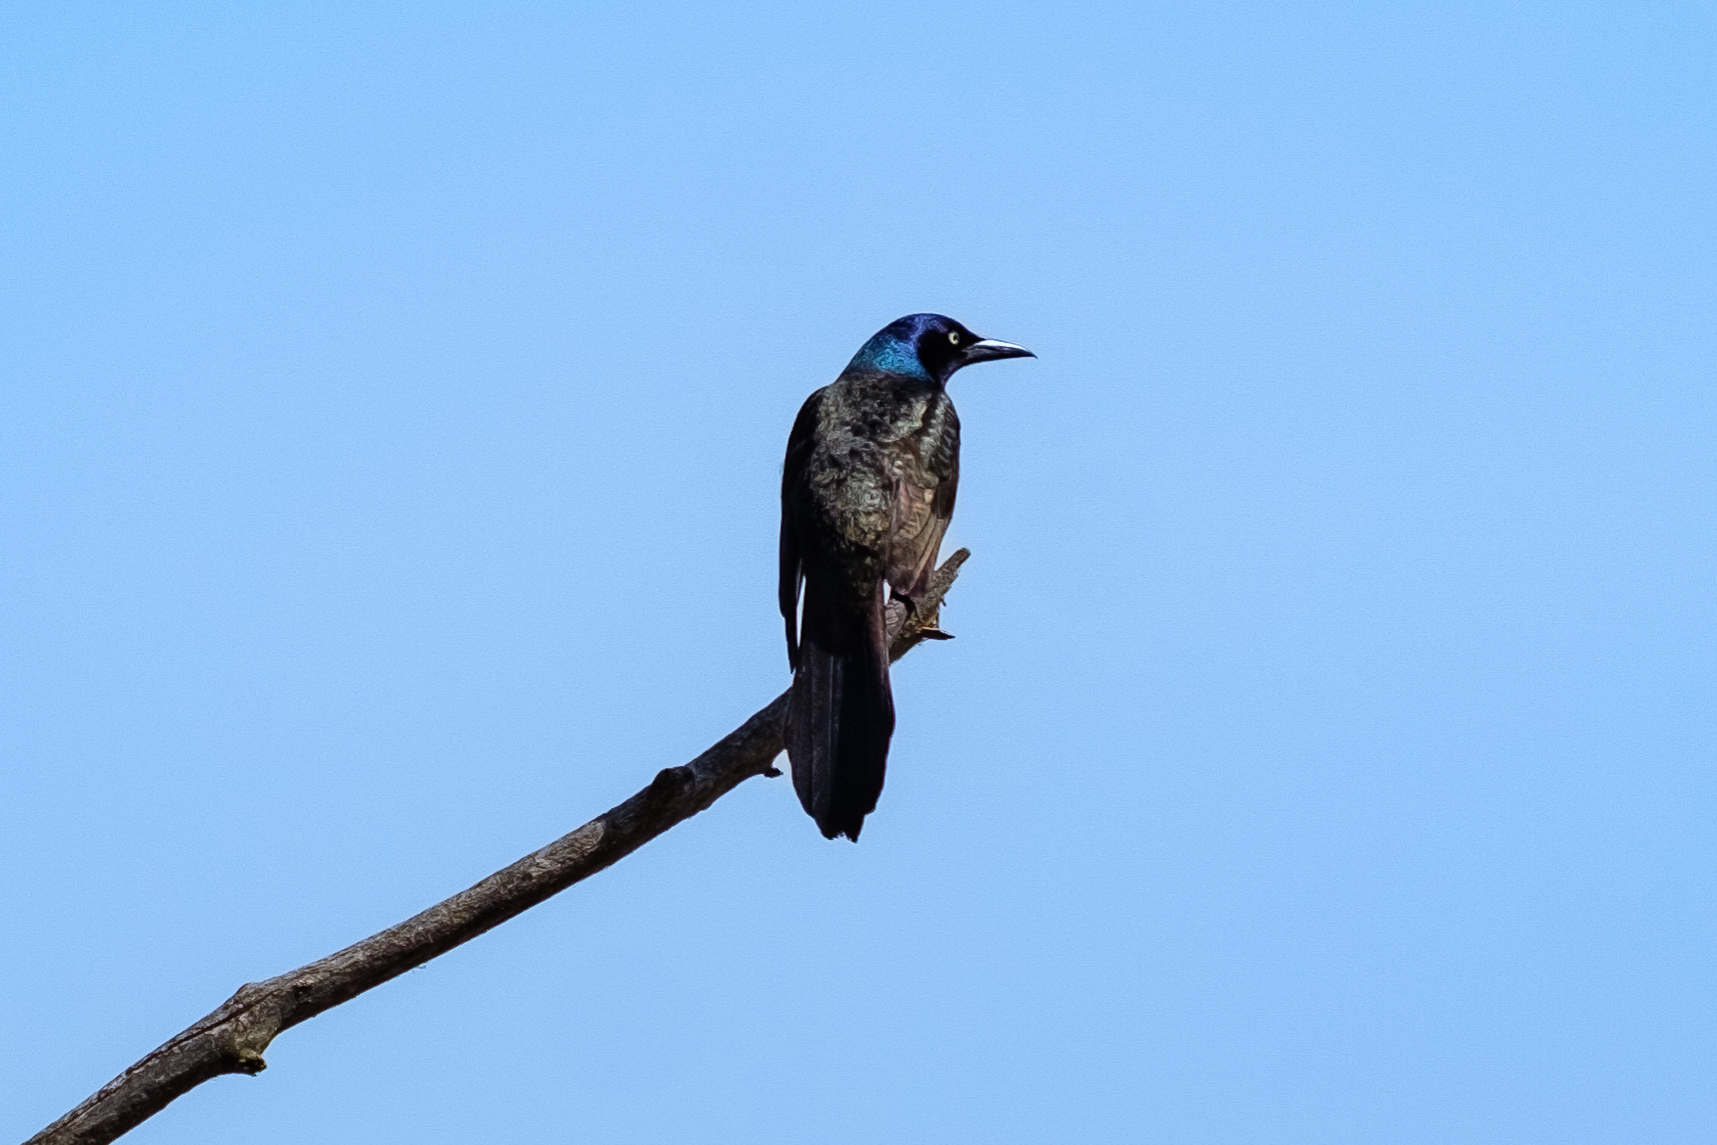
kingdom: Animalia
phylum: Chordata
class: Aves
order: Passeriformes
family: Icteridae
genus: Quiscalus
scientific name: Quiscalus quiscula
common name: Common grackle
